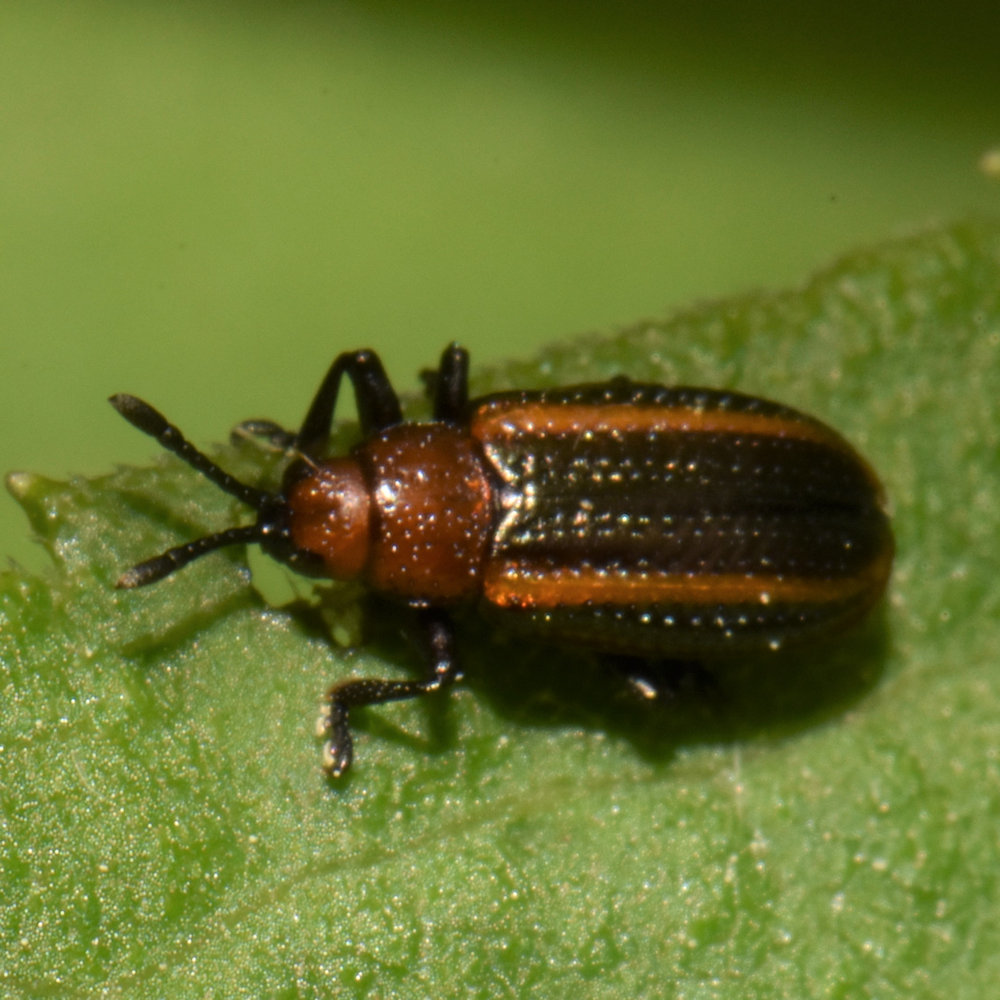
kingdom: Animalia
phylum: Arthropoda
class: Insecta
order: Coleoptera
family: Chrysomelidae
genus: Microrhopala
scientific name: Microrhopala vittata
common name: Goldenrod leaf miner beetle
